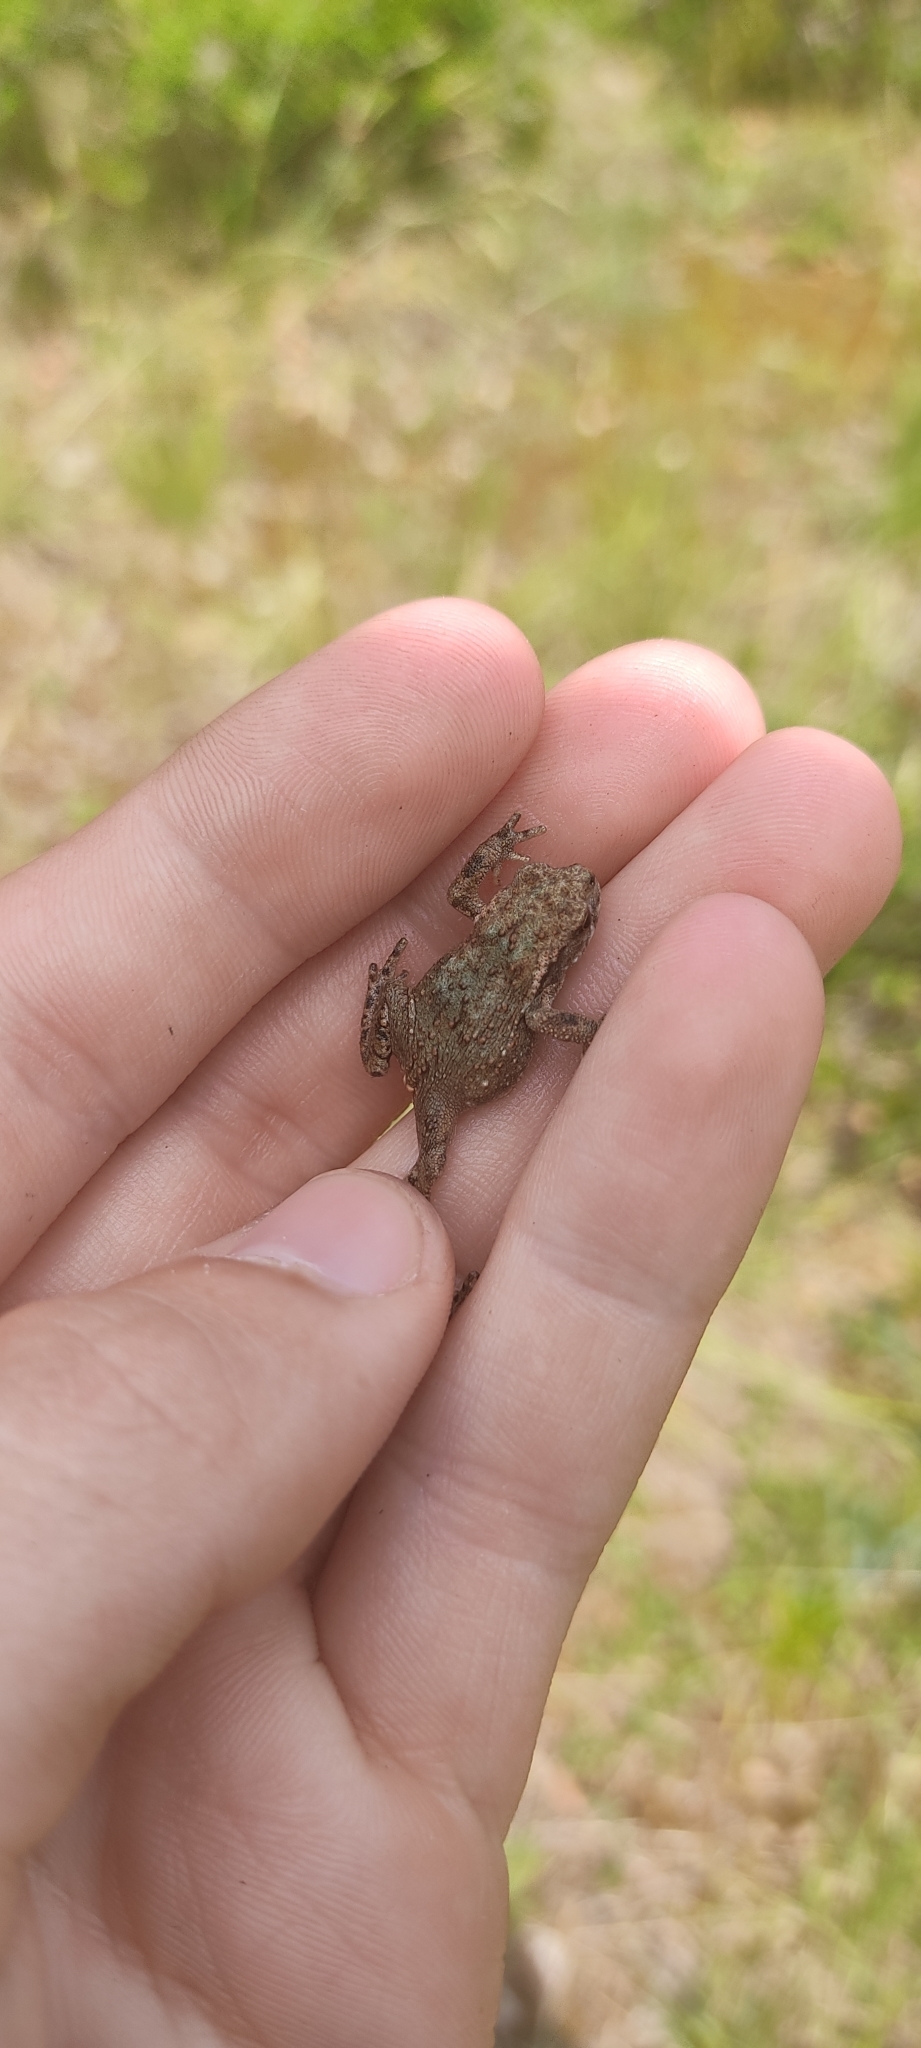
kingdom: Animalia
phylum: Chordata
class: Amphibia
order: Anura
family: Bufonidae
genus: Bufo
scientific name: Bufo spinosus
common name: Western common toad
